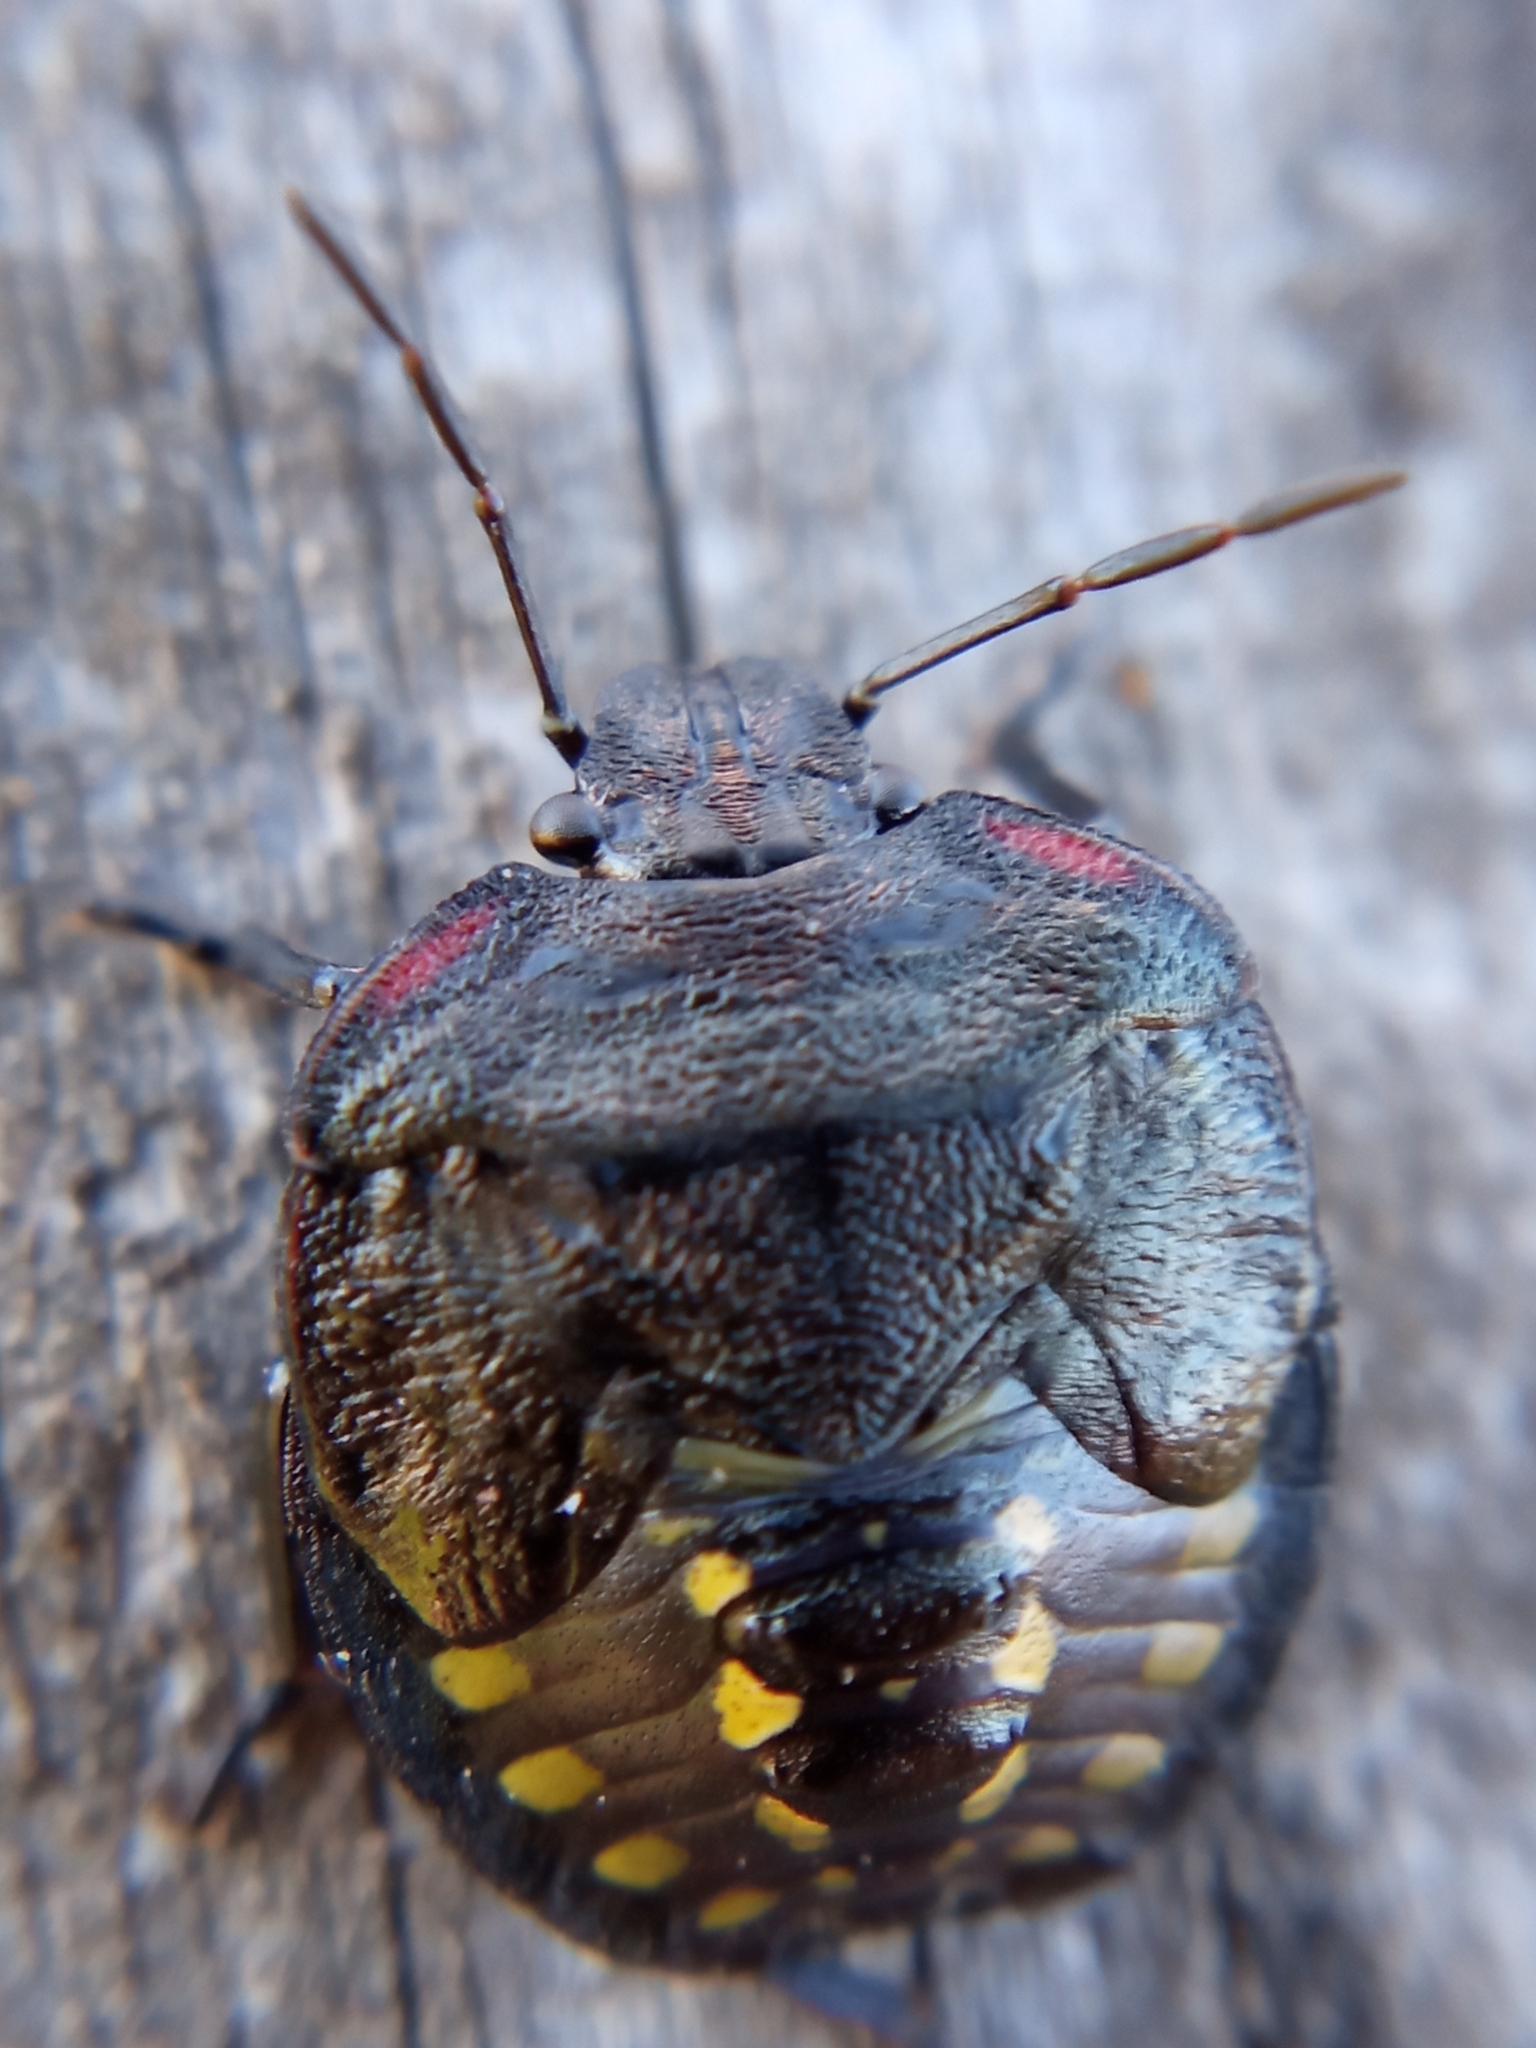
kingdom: Animalia
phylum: Arthropoda
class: Insecta
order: Hemiptera
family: Pentatomidae
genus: Nezara
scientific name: Nezara viridula
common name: Southern green stink bug
